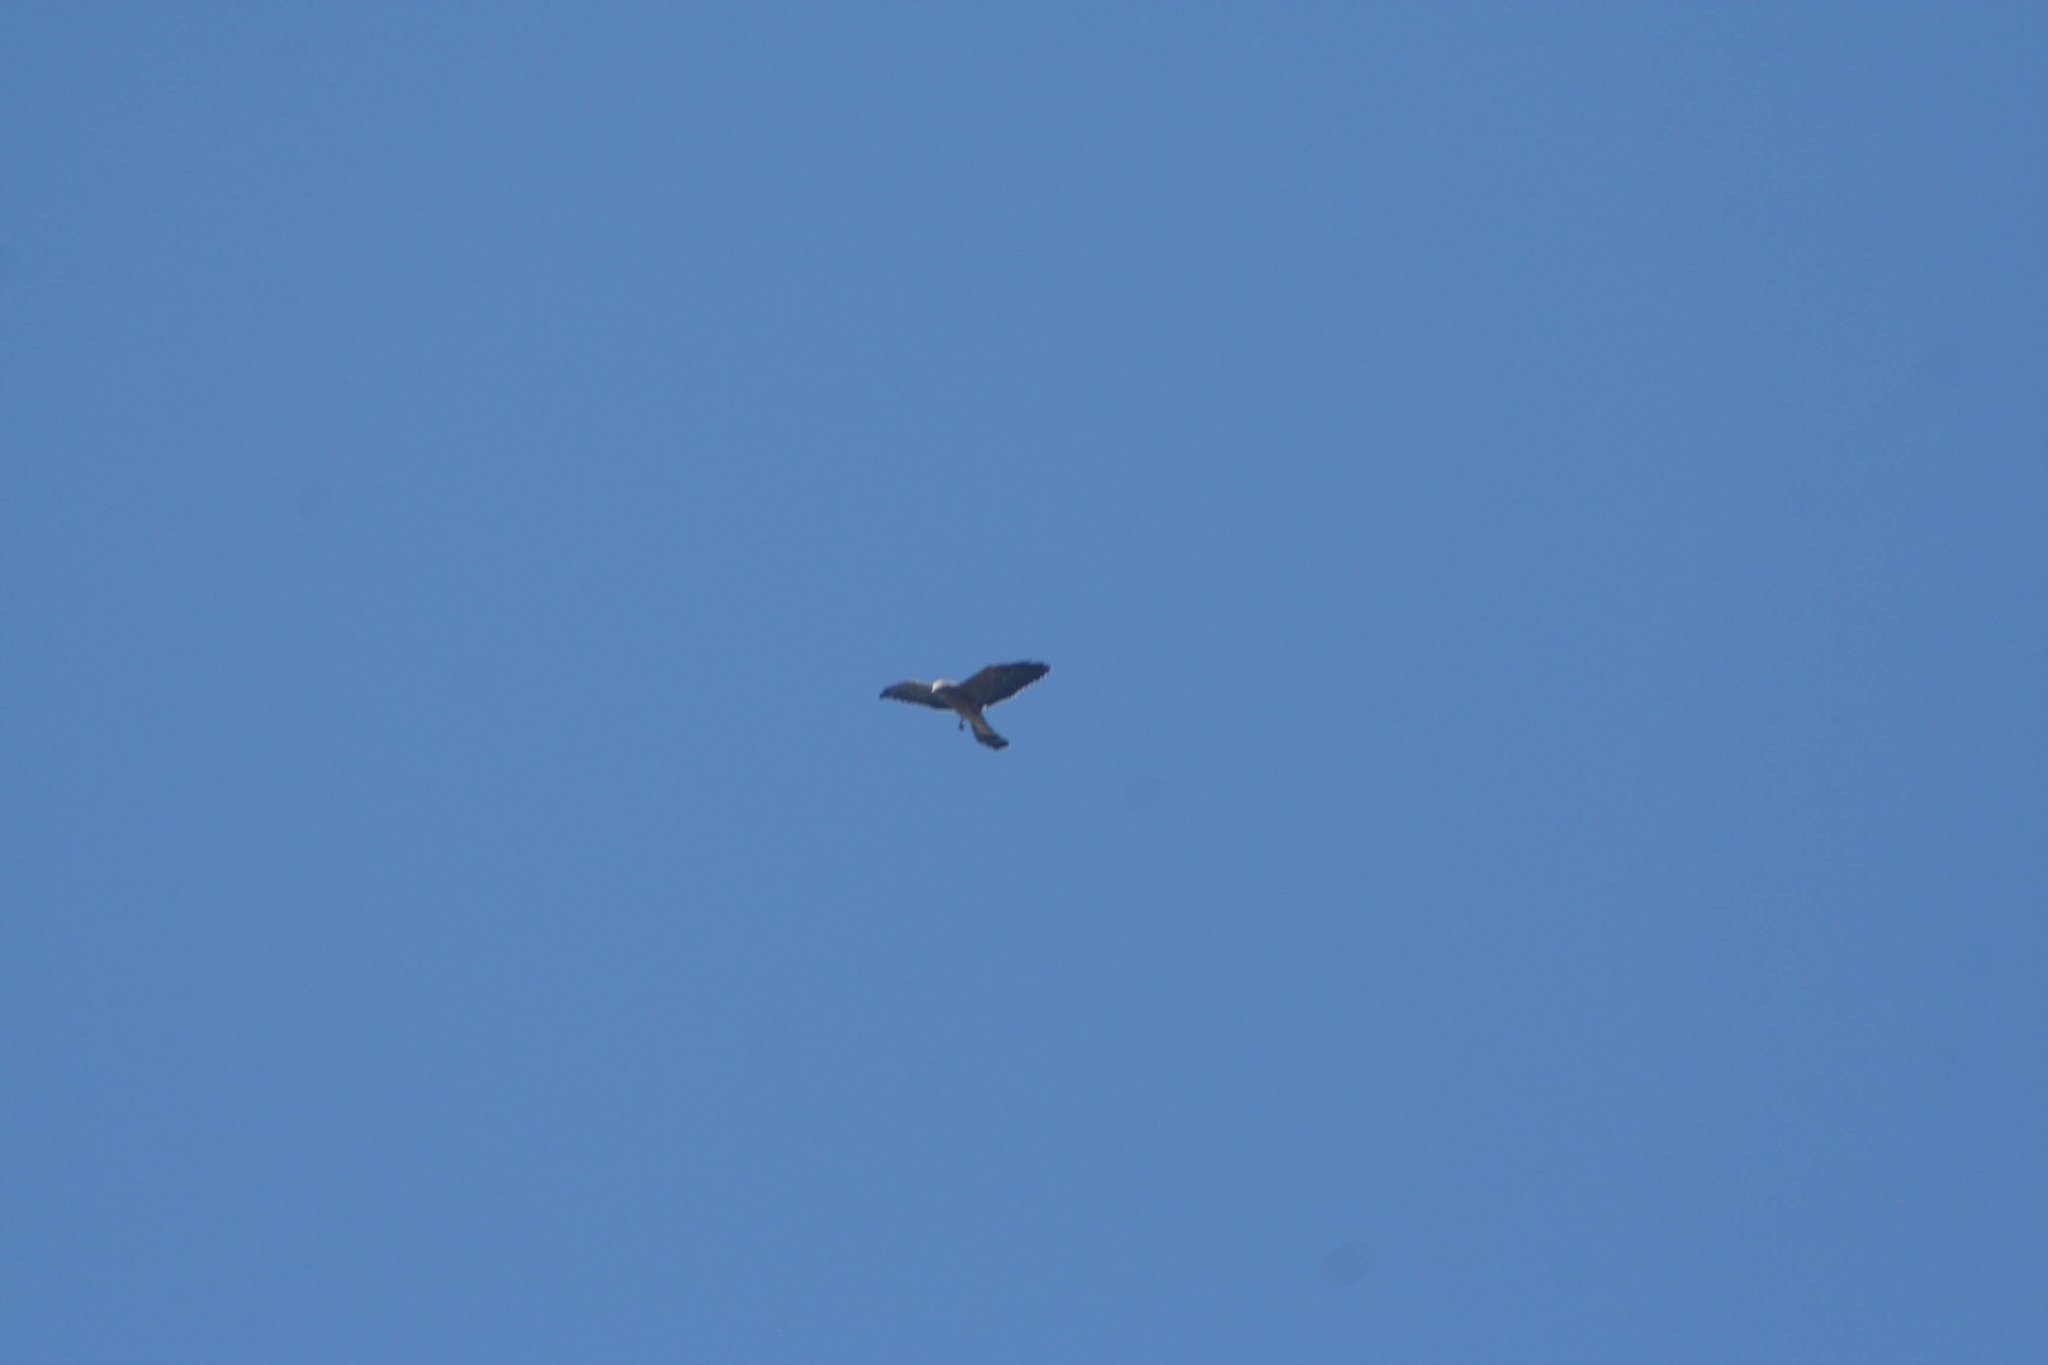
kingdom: Animalia
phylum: Chordata
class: Aves
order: Accipitriformes
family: Accipitridae
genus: Ictinia
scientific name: Ictinia mississippiensis
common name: Mississippi kite
